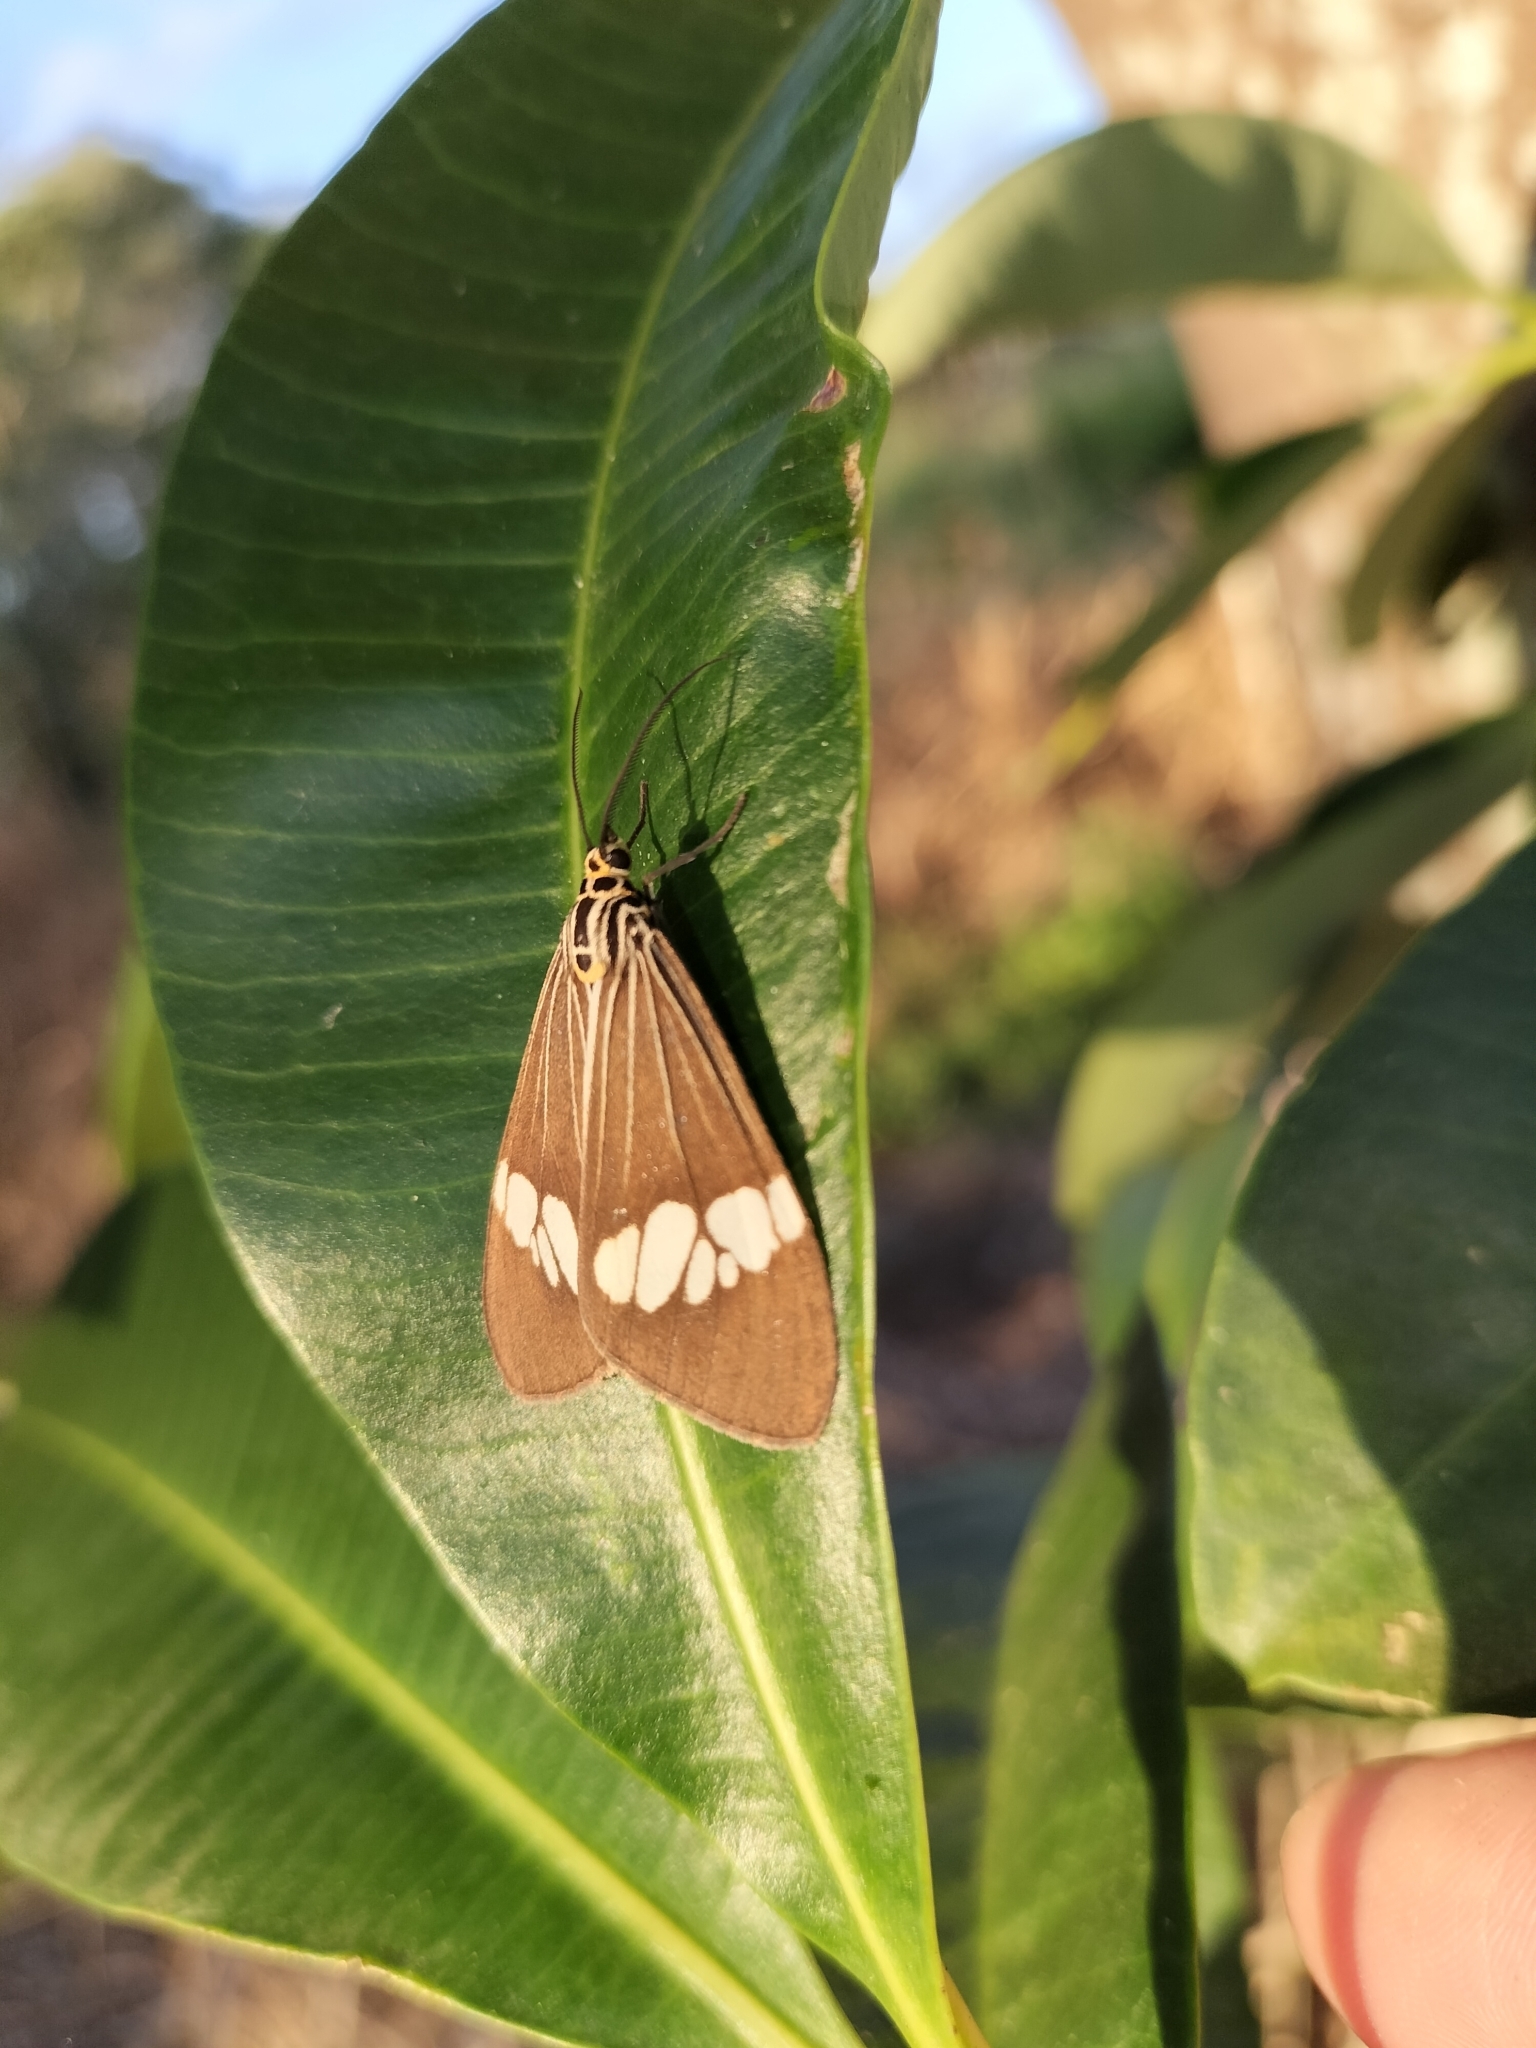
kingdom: Animalia
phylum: Arthropoda
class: Insecta
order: Lepidoptera
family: Erebidae
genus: Nyctemera
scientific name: Nyctemera baulus
